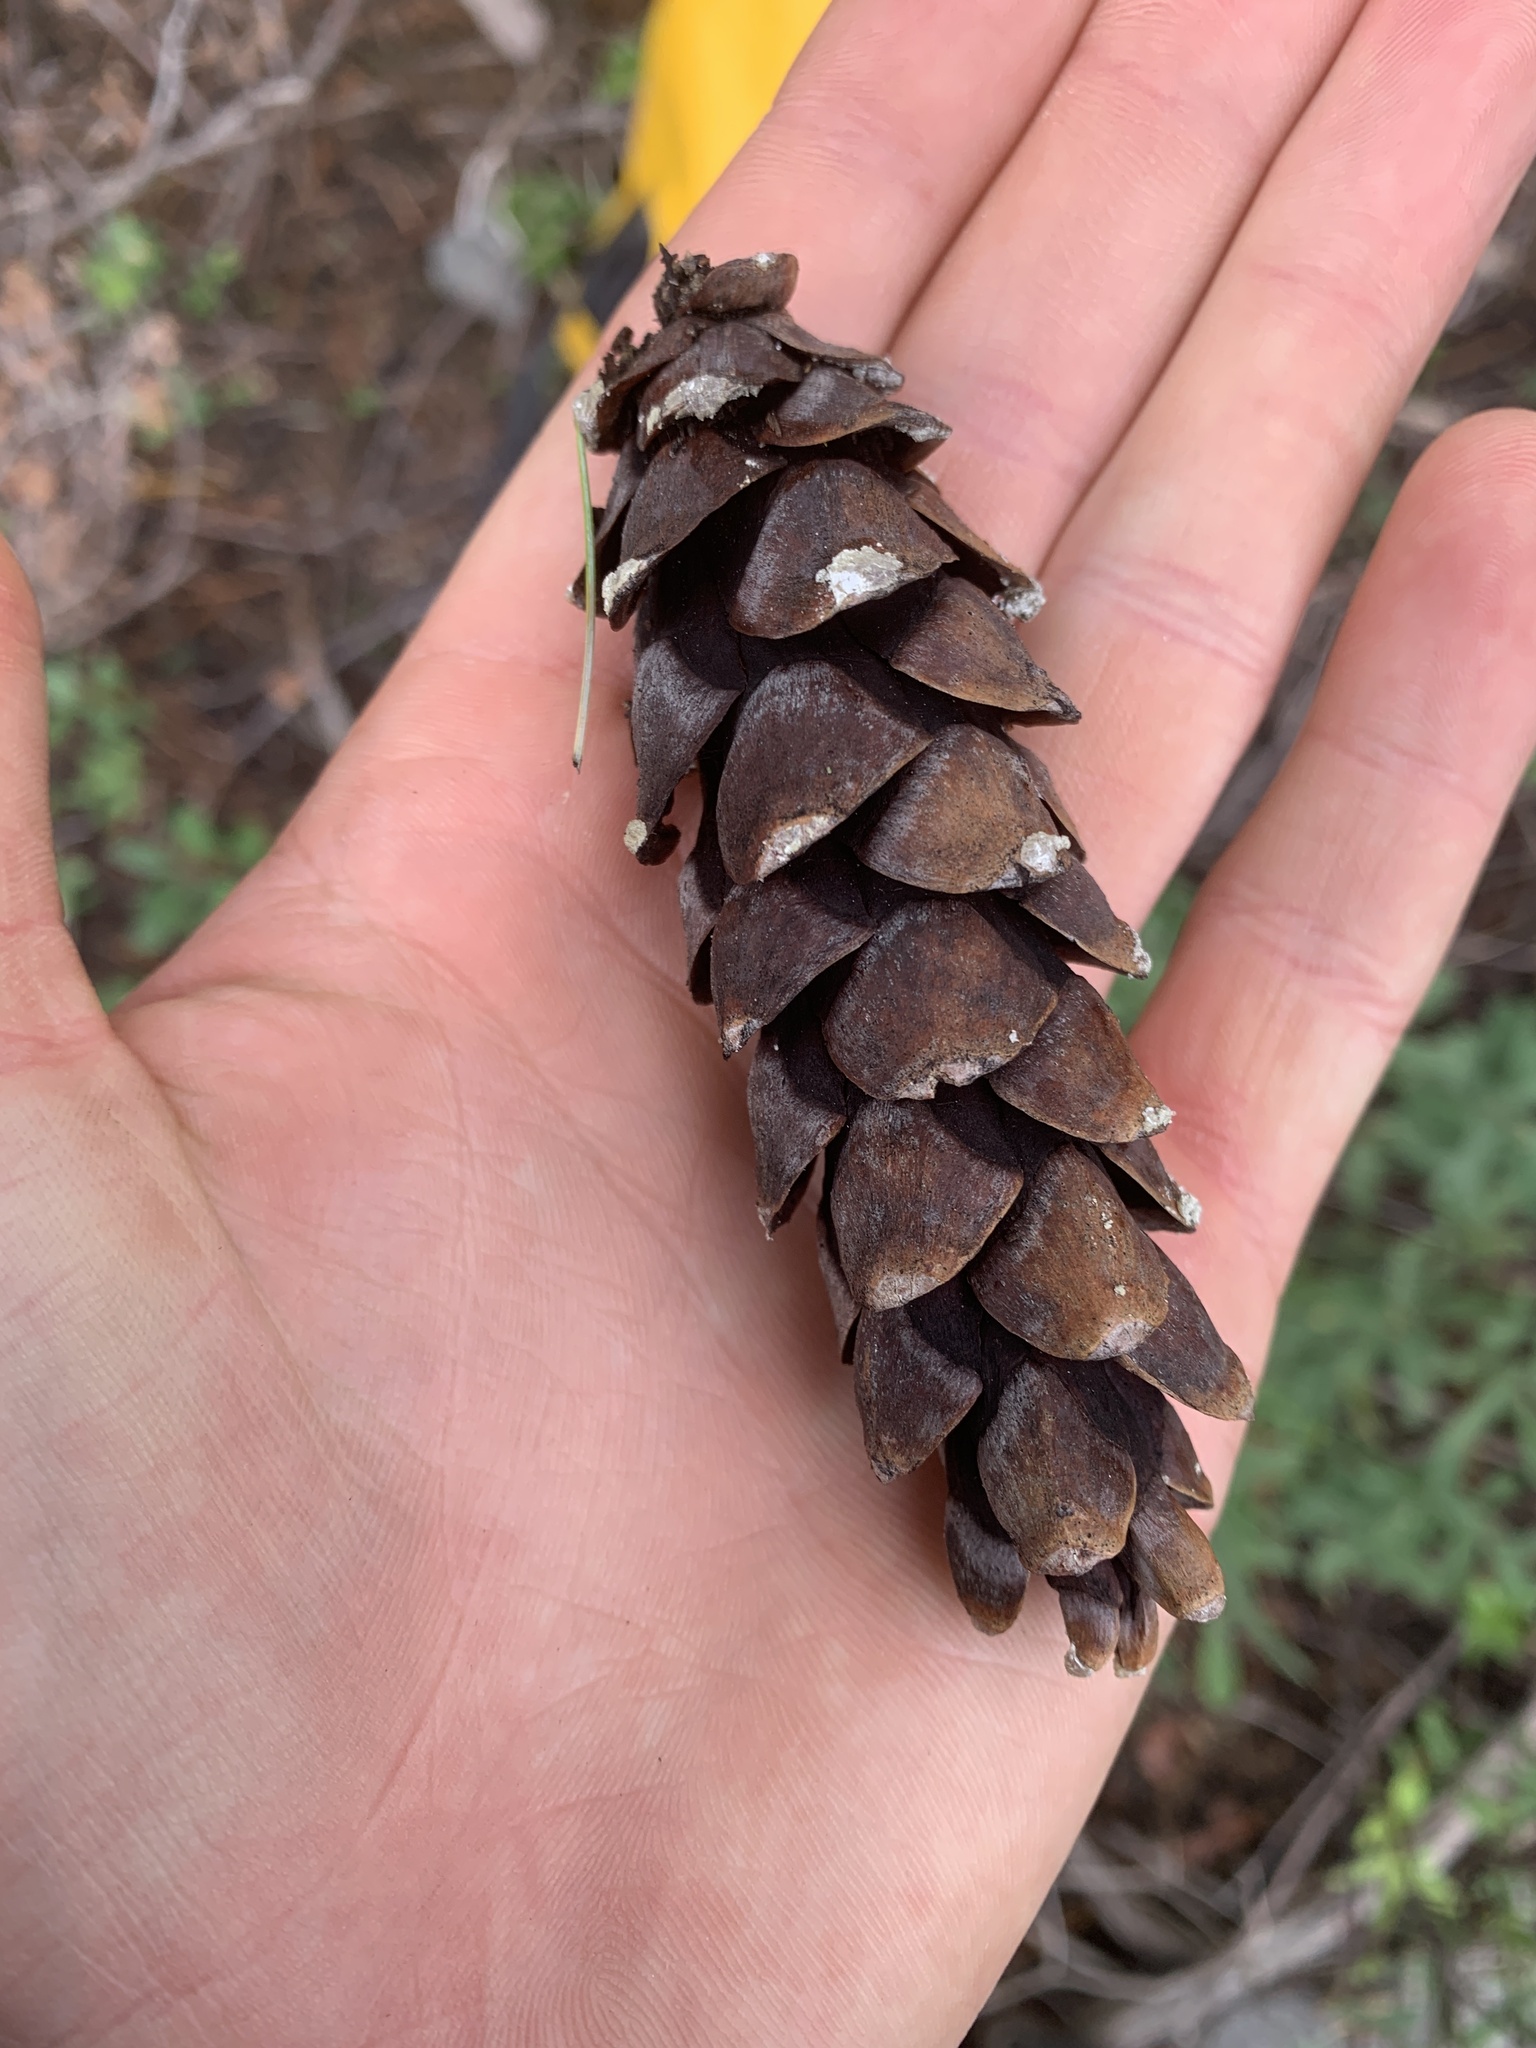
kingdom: Plantae
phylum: Tracheophyta
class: Pinopsida
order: Pinales
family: Pinaceae
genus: Pinus
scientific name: Pinus strobus
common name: Weymouth pine
